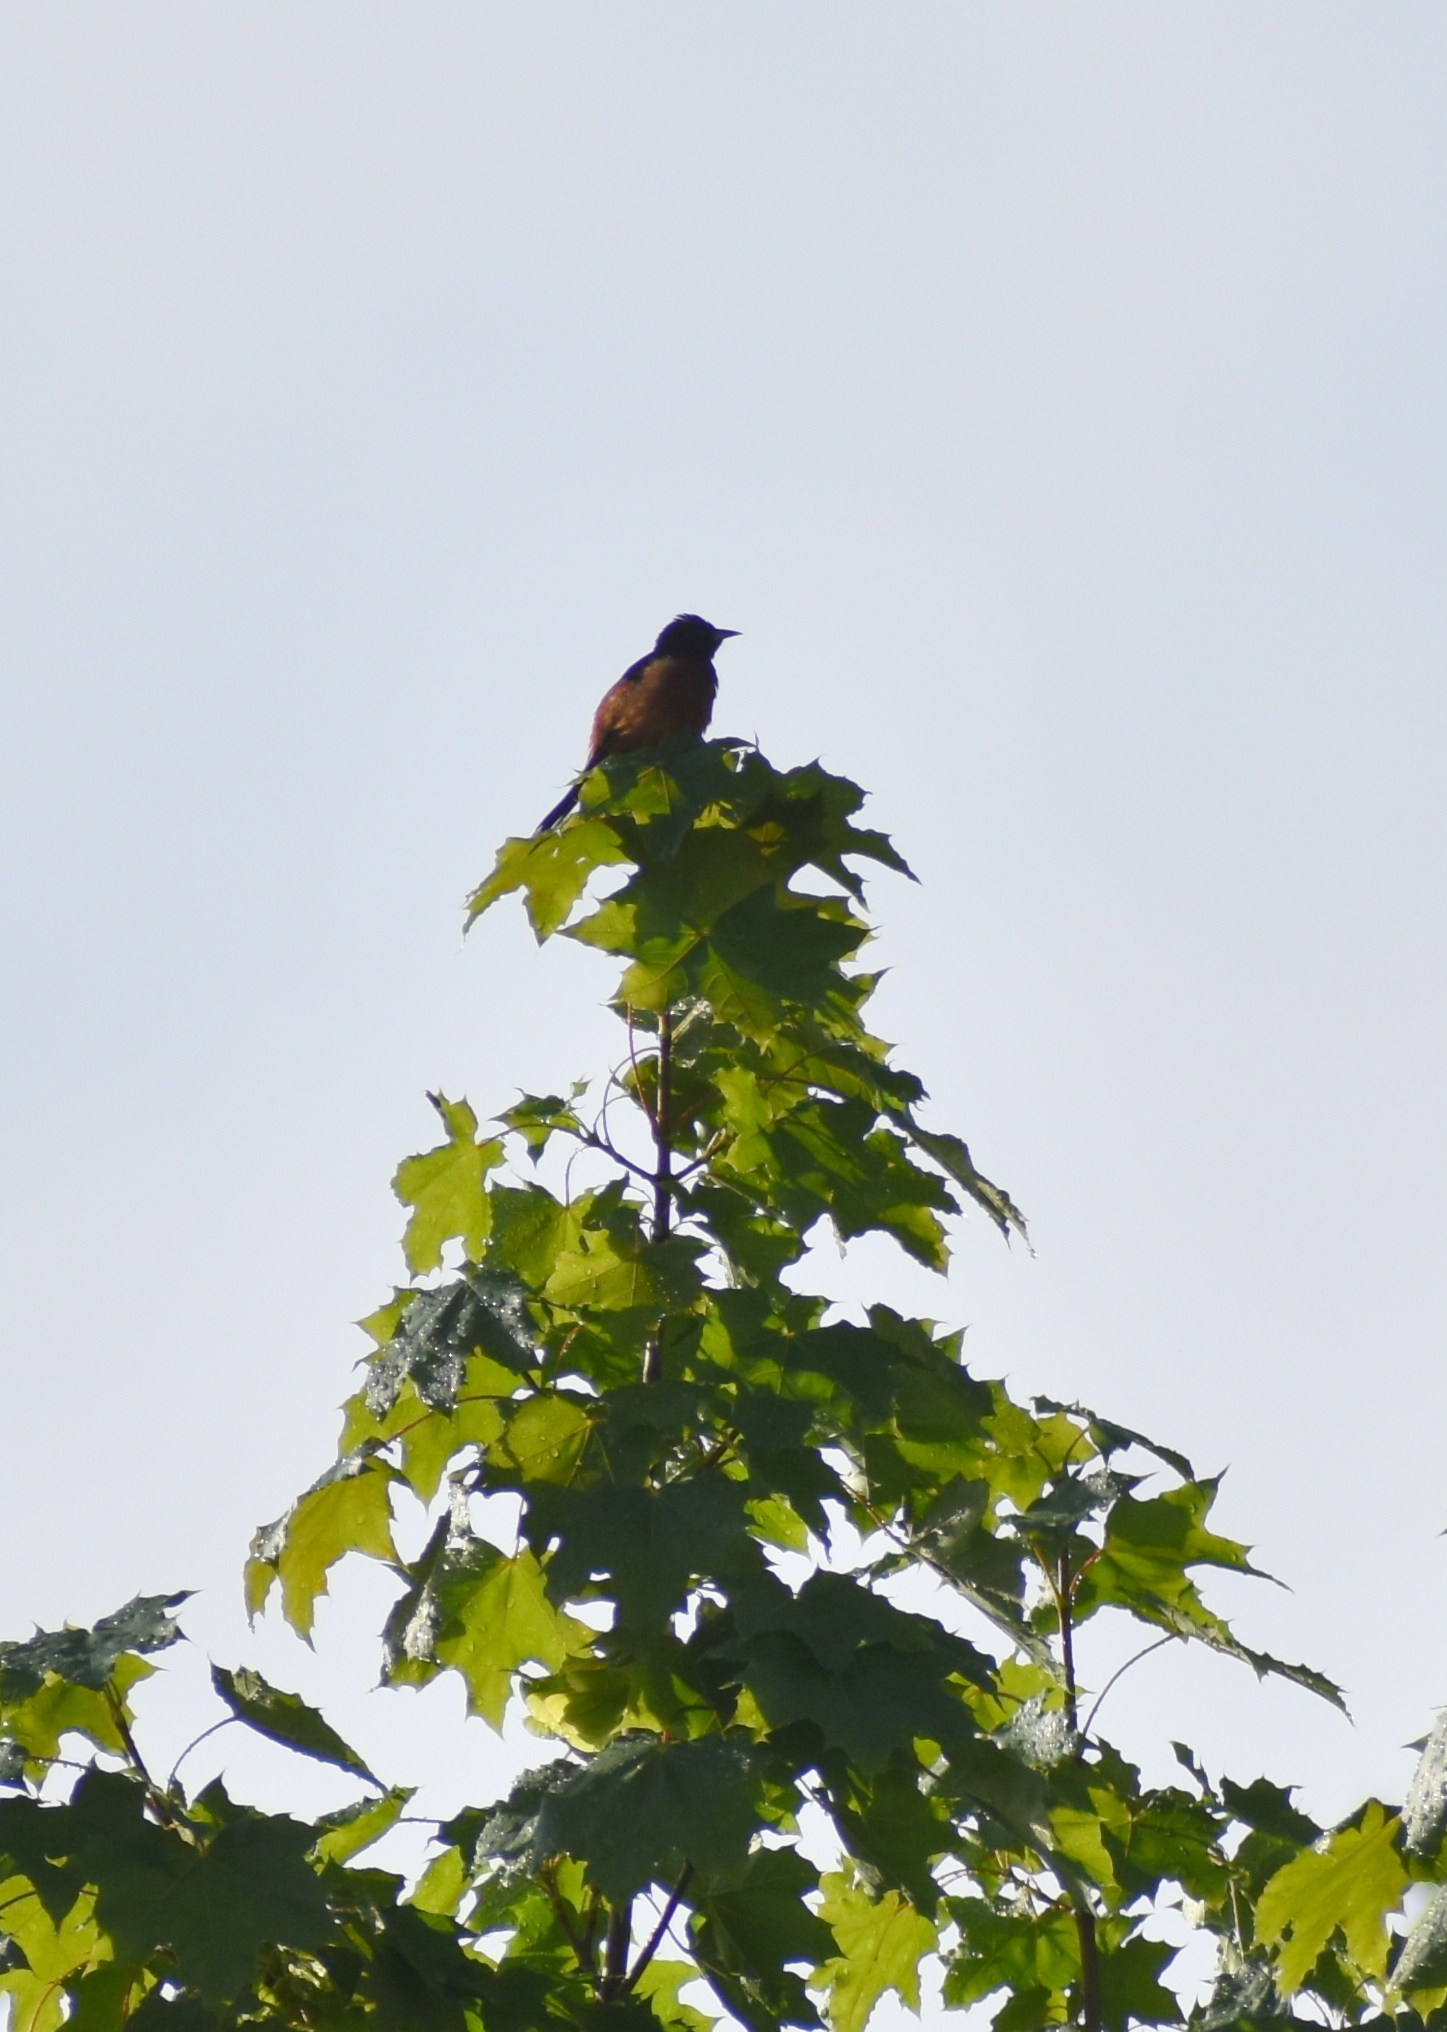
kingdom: Animalia
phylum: Chordata
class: Aves
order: Passeriformes
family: Icteridae
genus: Icterus
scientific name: Icterus spurius
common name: Orchard oriole
